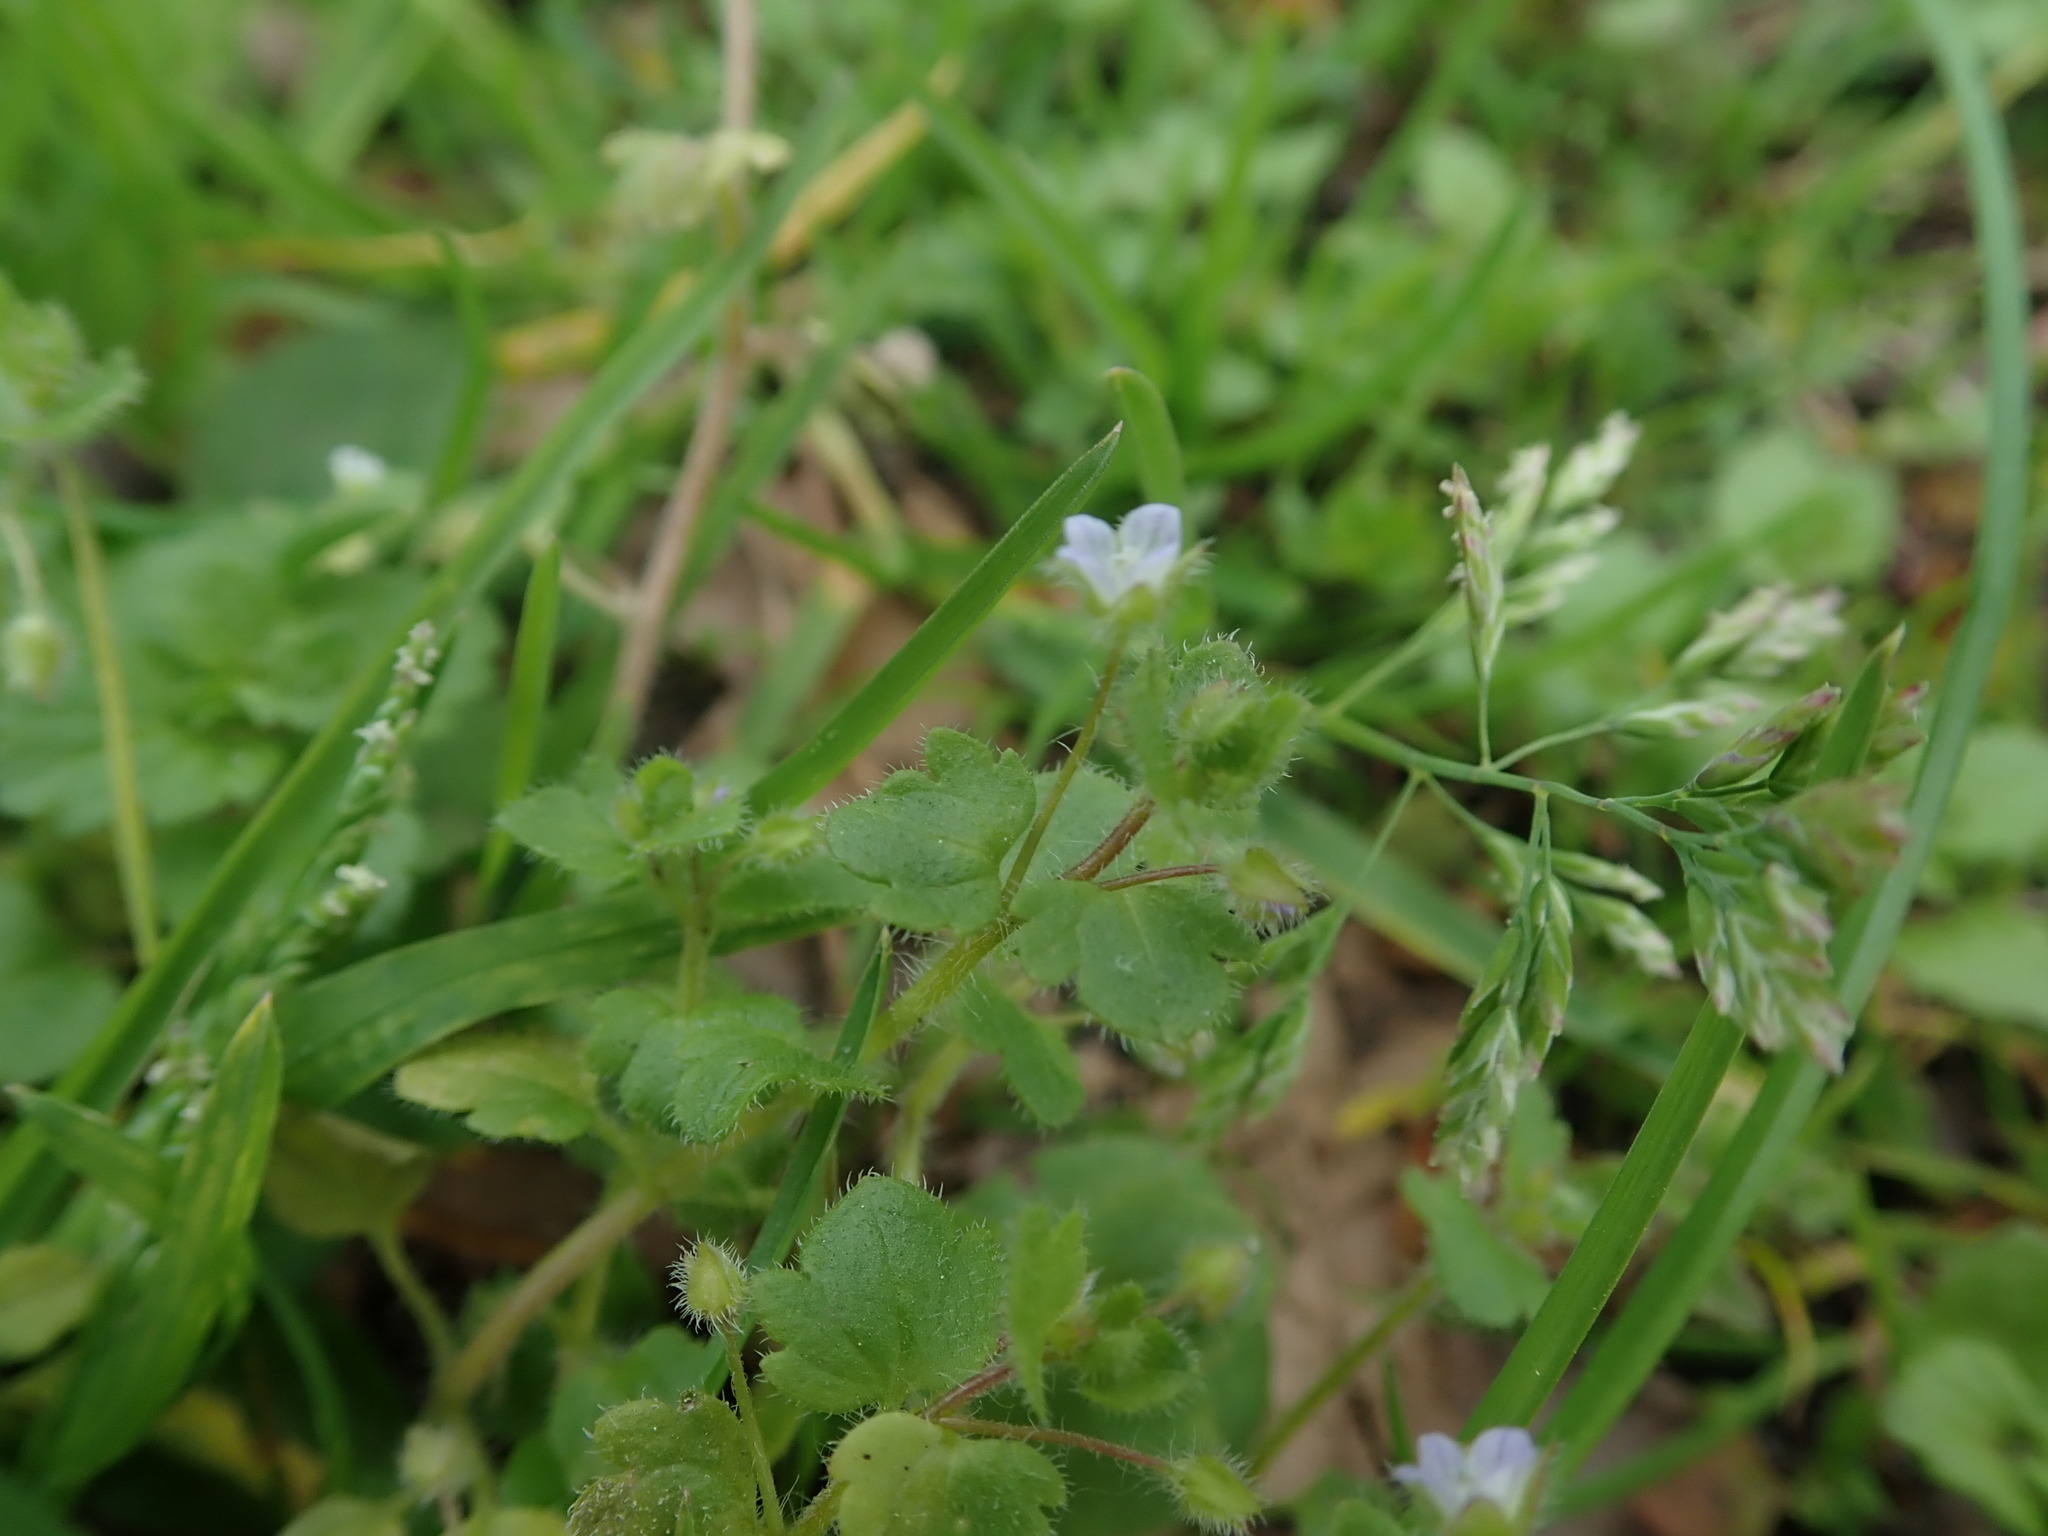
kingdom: Plantae
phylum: Tracheophyta
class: Magnoliopsida
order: Lamiales
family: Plantaginaceae
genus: Veronica
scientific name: Veronica sublobata
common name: False ivy-leaved speedwell
